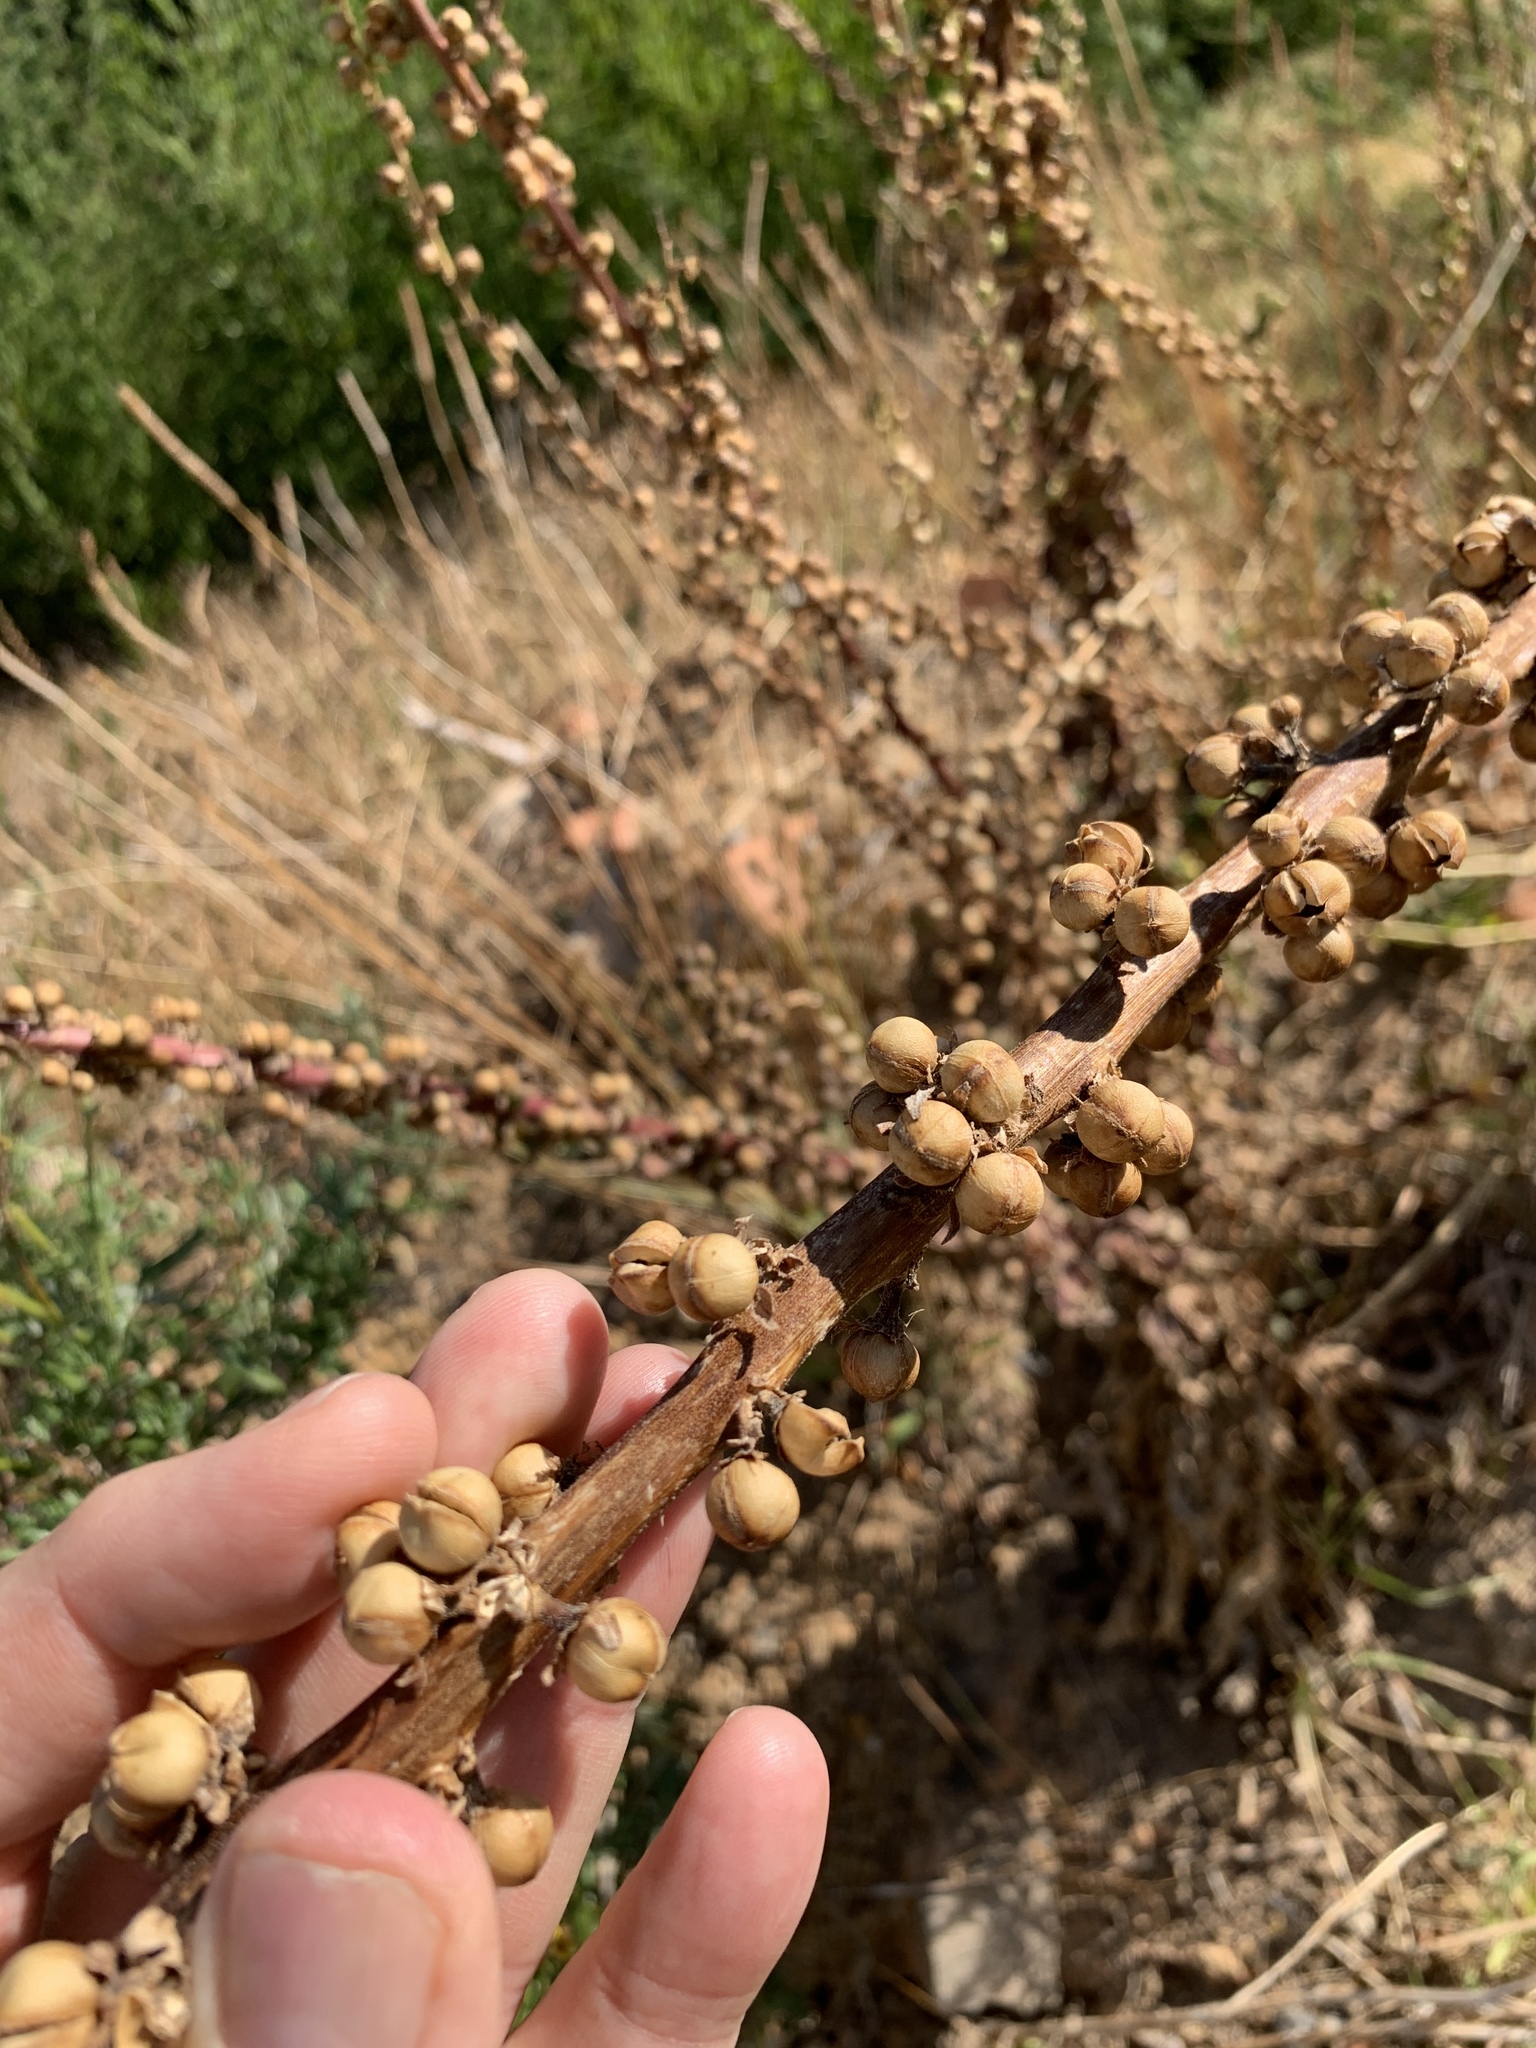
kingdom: Plantae
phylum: Tracheophyta
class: Magnoliopsida
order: Lamiales
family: Scrophulariaceae
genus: Verbascum
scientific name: Verbascum virgatum
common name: Twiggy mullein
